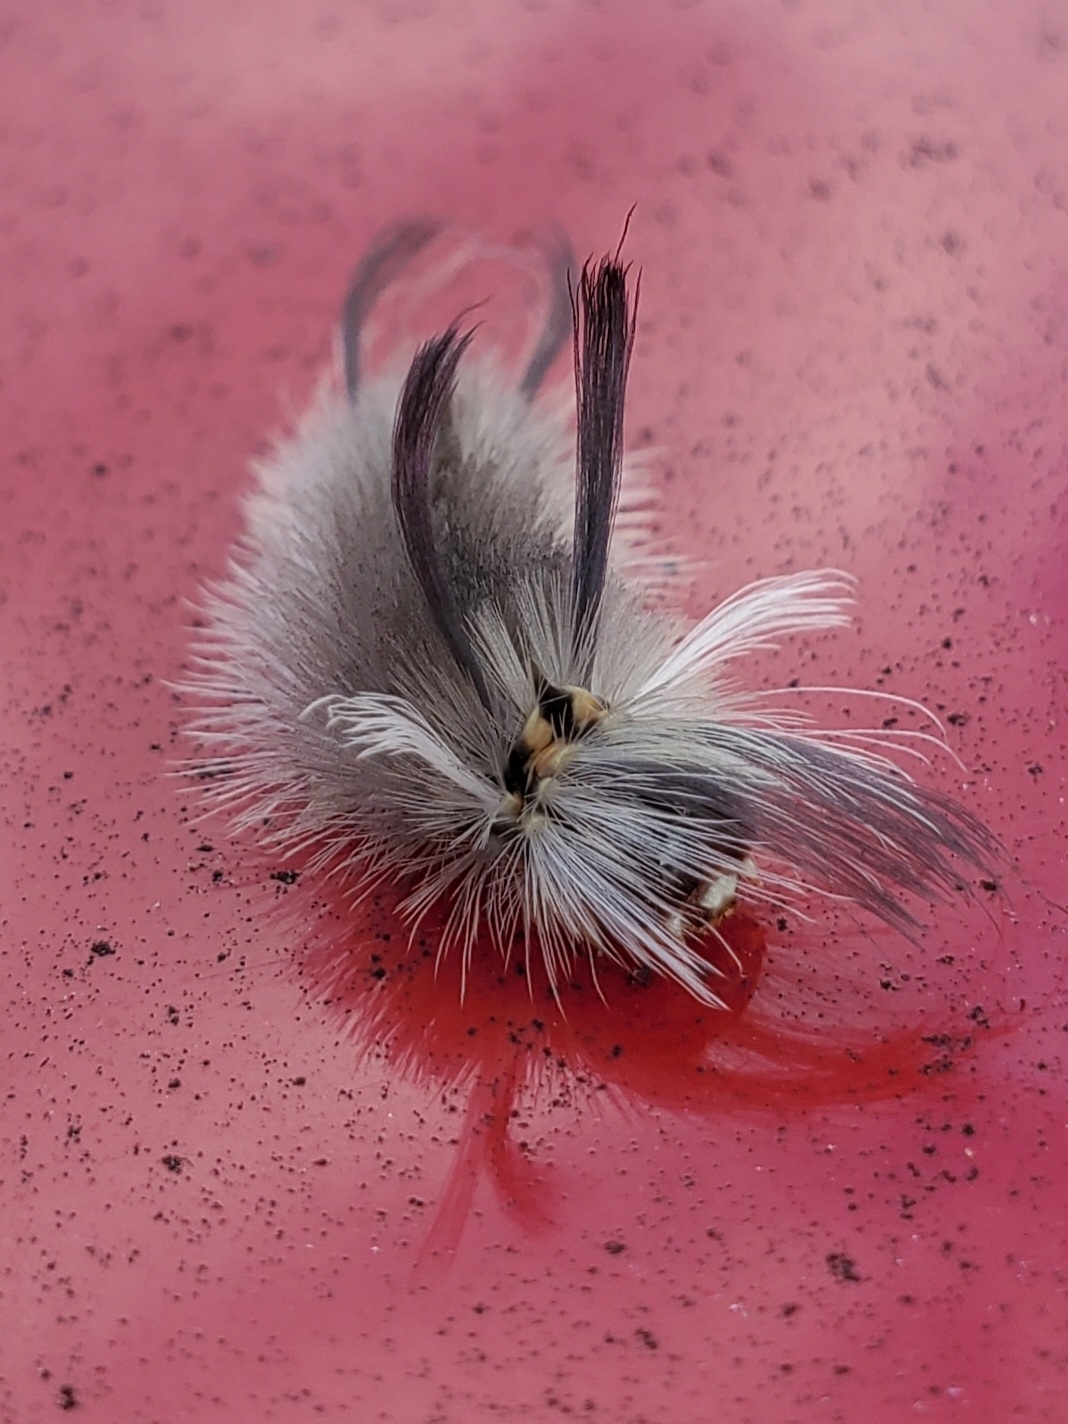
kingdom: Animalia
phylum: Arthropoda
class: Insecta
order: Lepidoptera
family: Erebidae
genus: Halysidota
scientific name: Halysidota tessellaris
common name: Banded tussock moth
